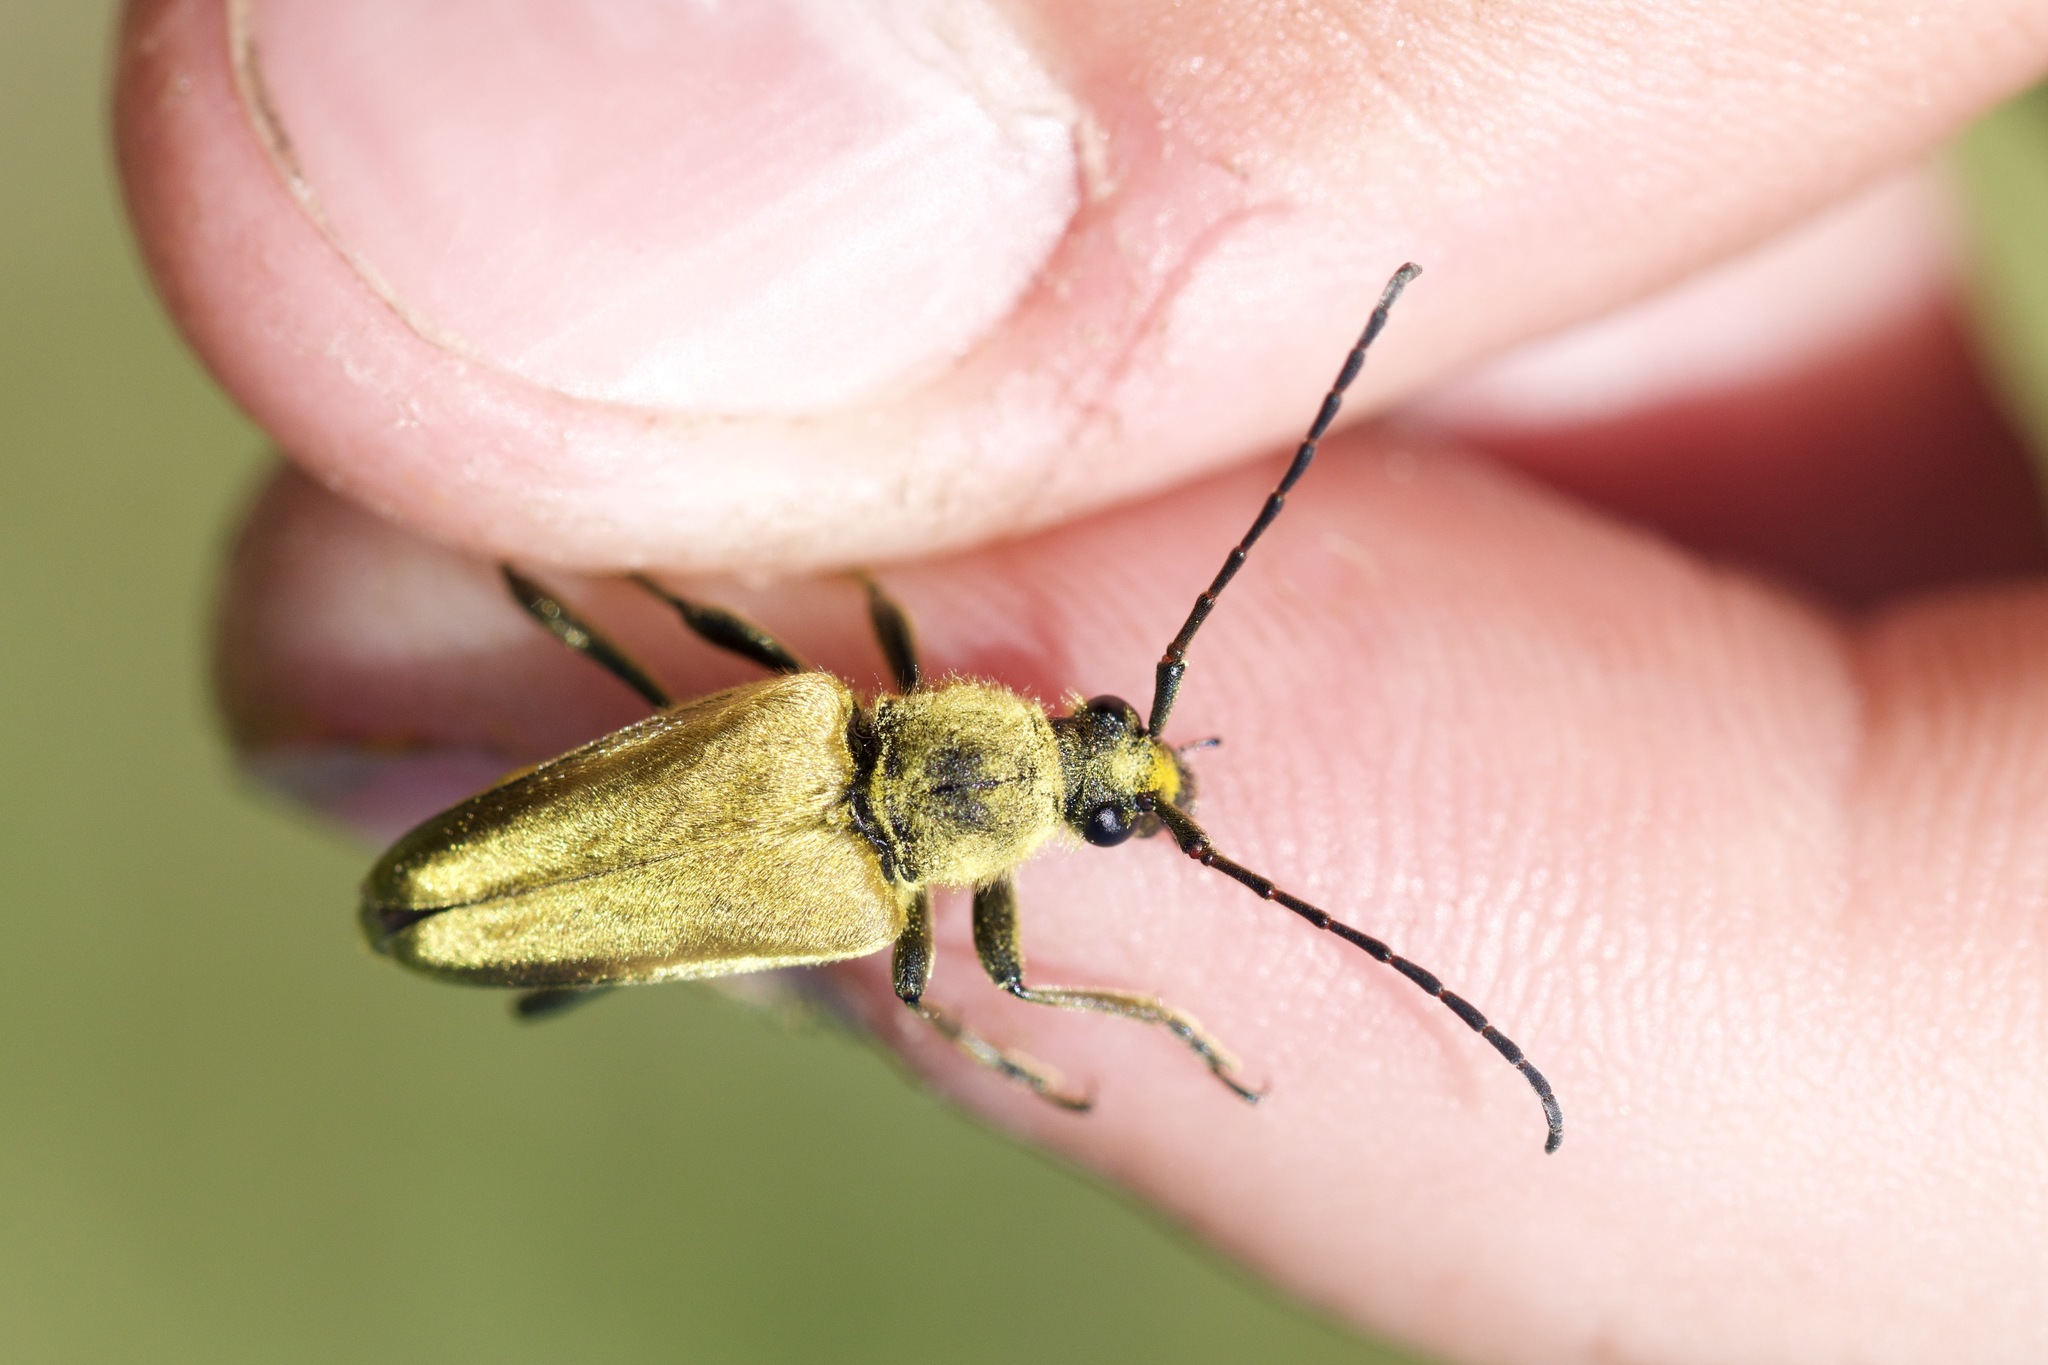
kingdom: Animalia
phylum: Arthropoda
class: Insecta
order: Coleoptera
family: Cerambycidae
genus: Cosmosalia
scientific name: Cosmosalia chrysocoma
